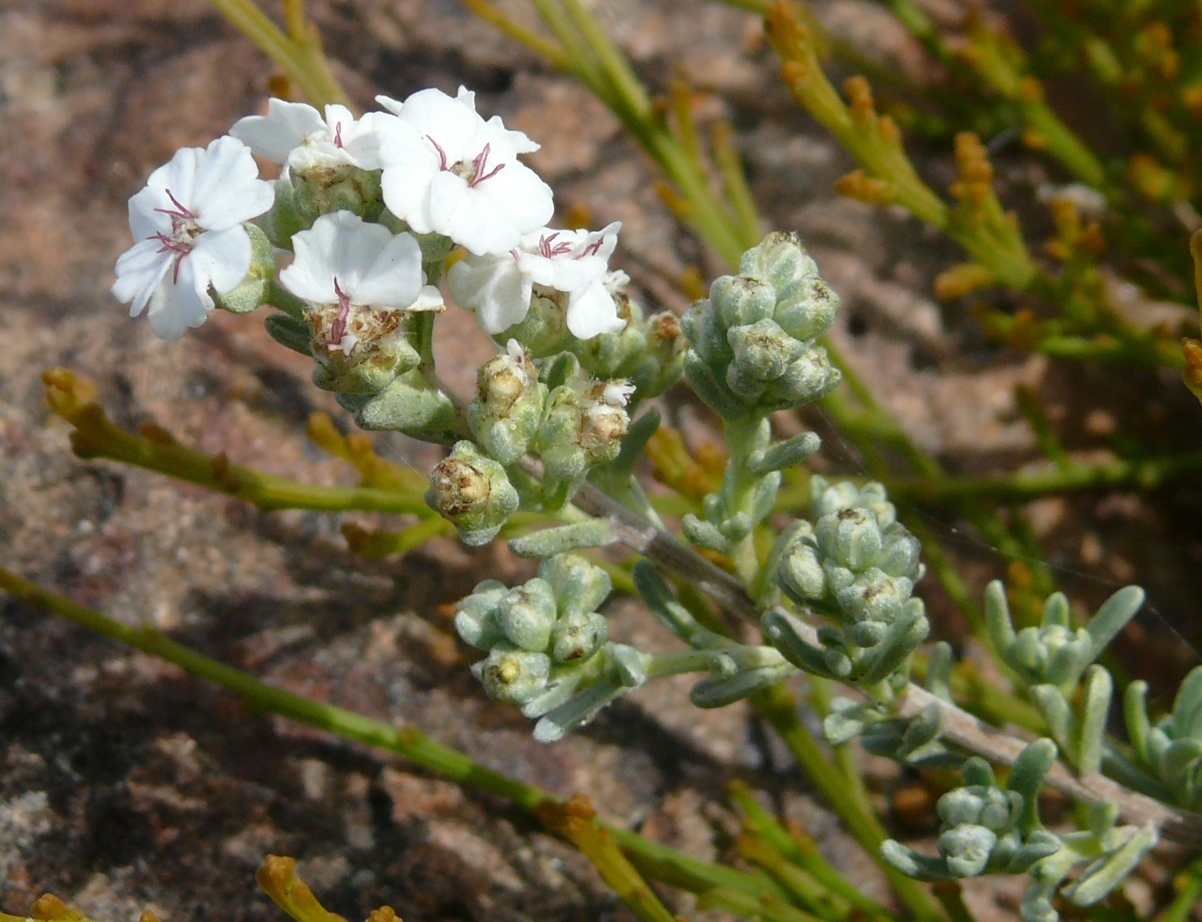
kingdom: Plantae
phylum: Tracheophyta
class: Magnoliopsida
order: Asterales
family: Asteraceae
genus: Eriocephalus
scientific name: Eriocephalus africanus
